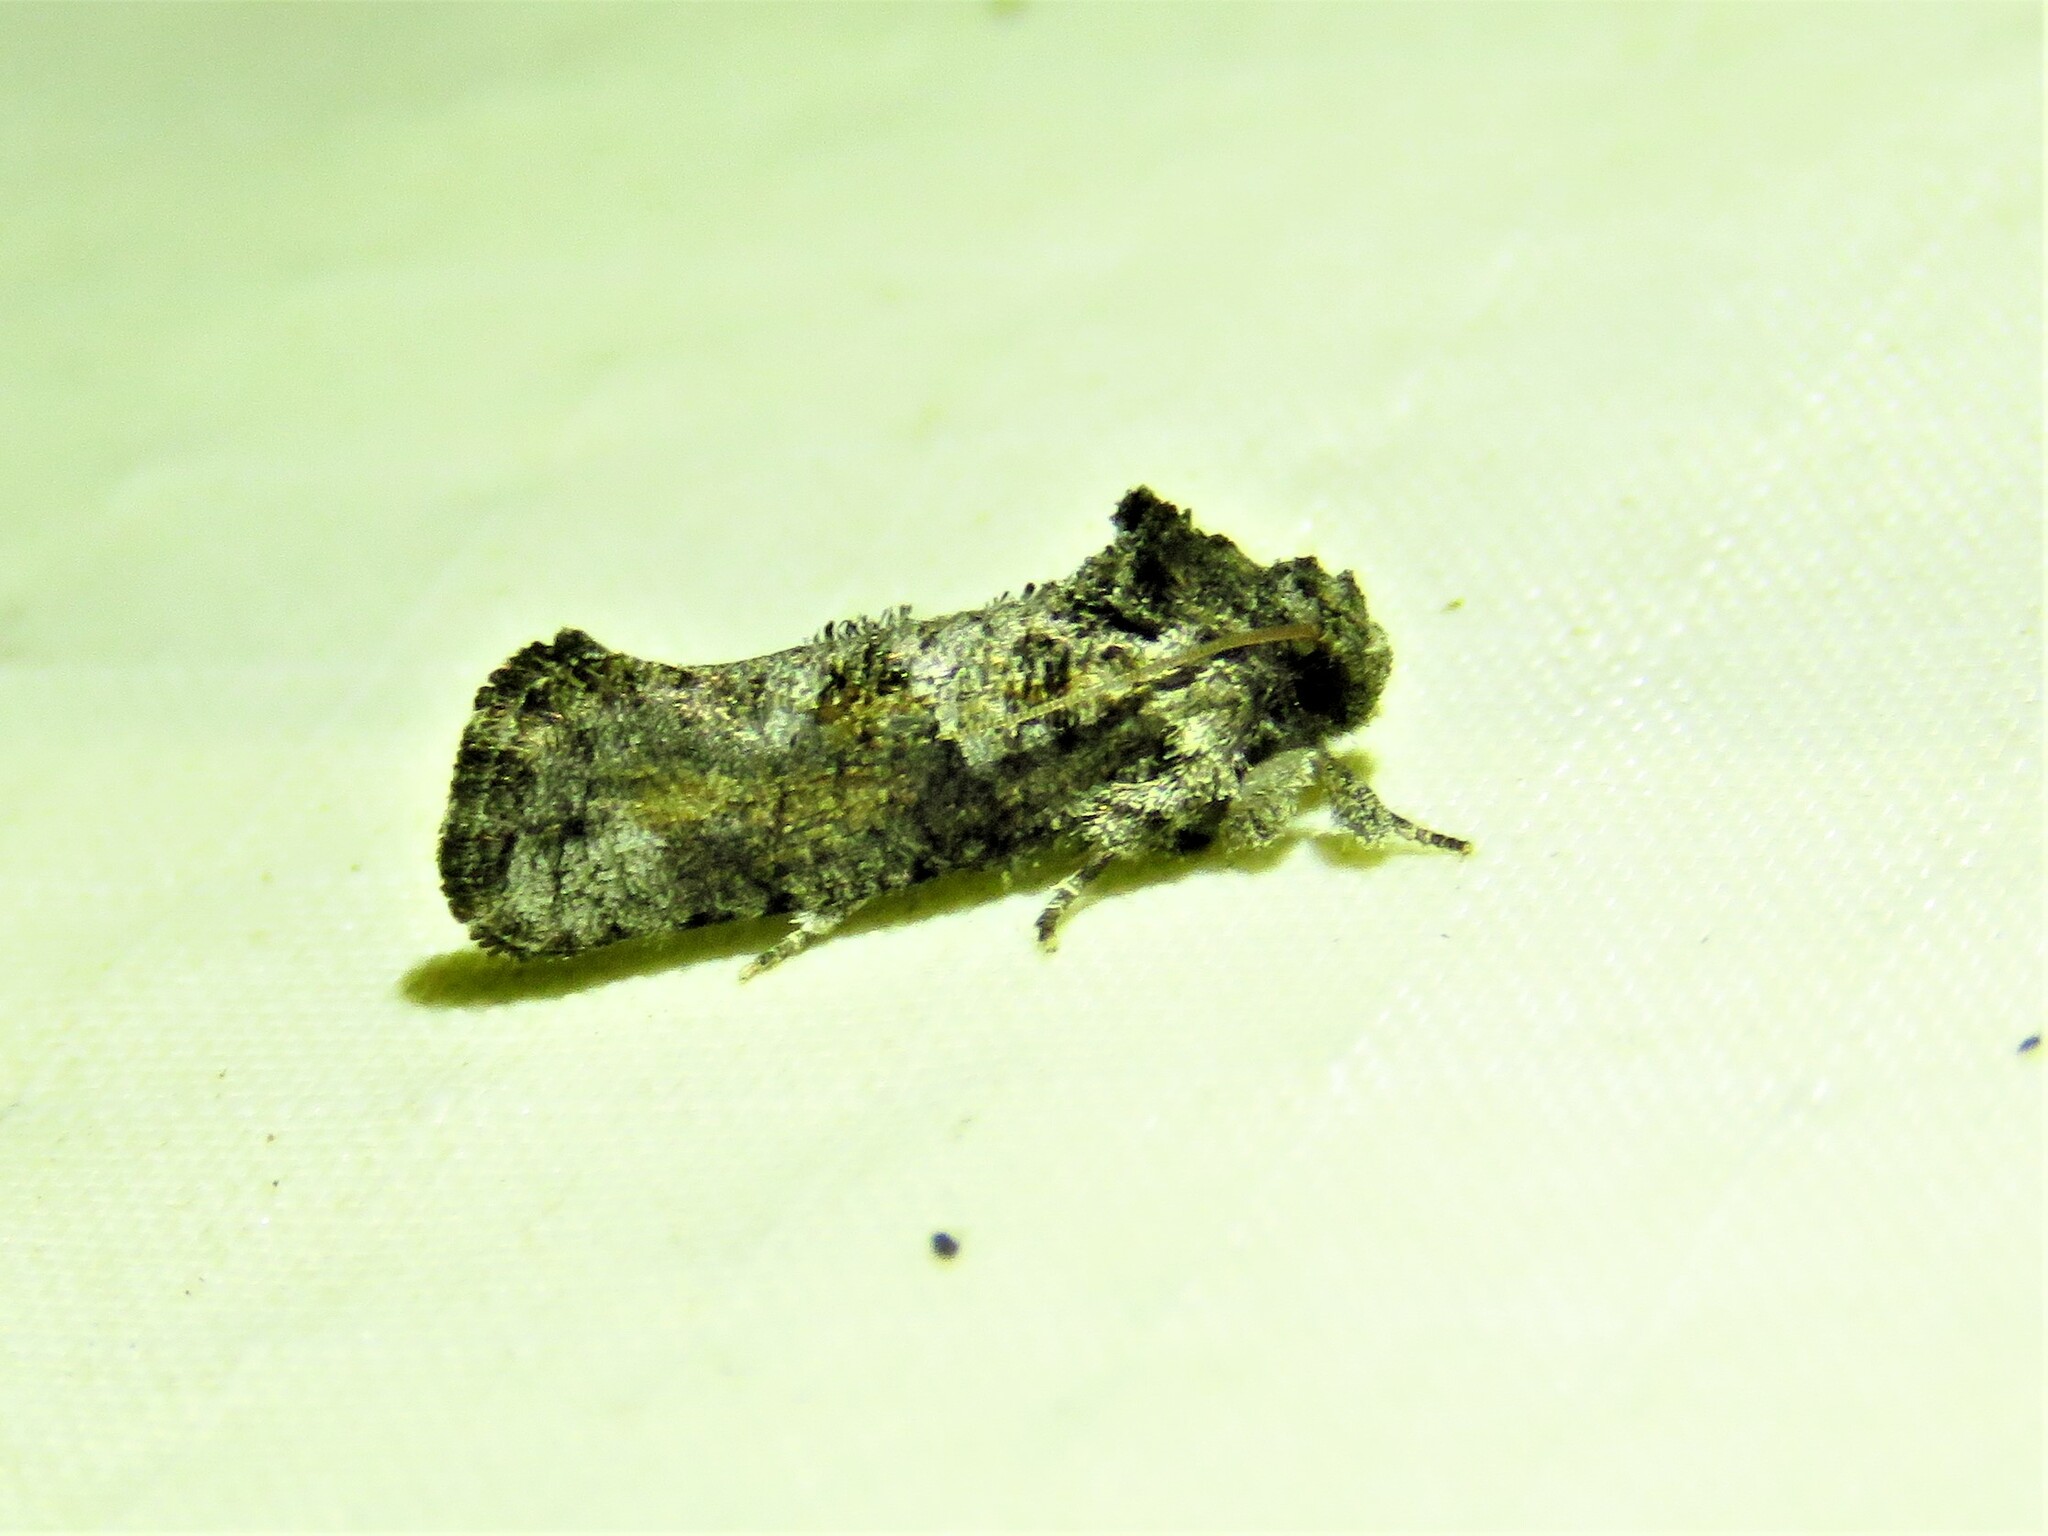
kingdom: Animalia
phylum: Arthropoda
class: Insecta
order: Lepidoptera
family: Tineidae
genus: Acrolophus
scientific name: Acrolophus piger
